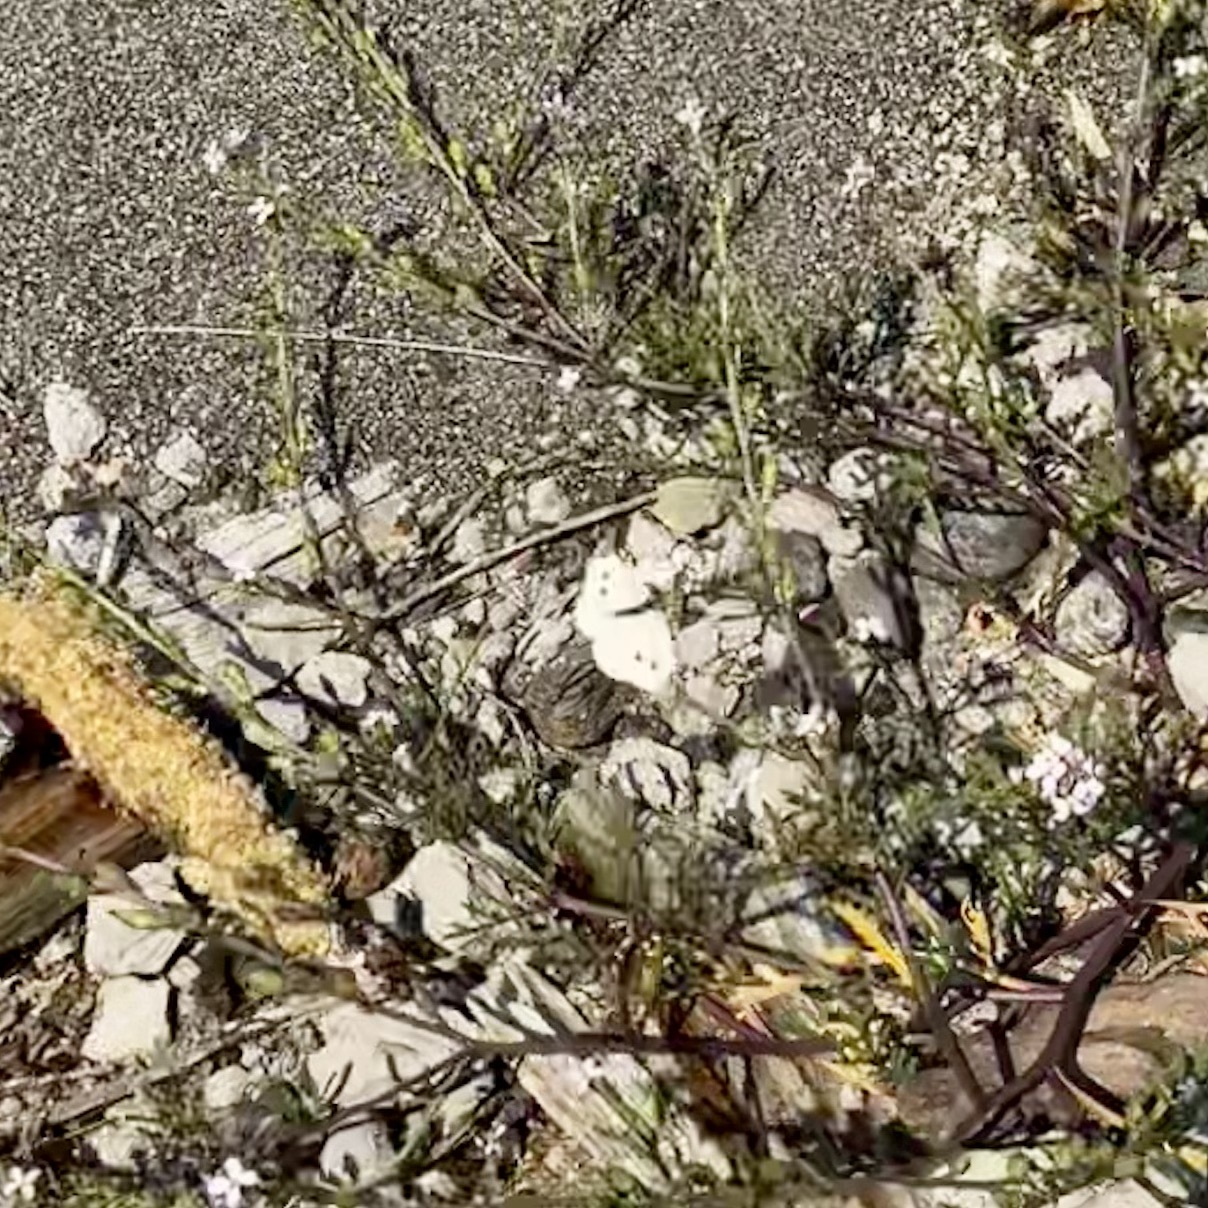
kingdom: Animalia
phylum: Arthropoda
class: Insecta
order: Lepidoptera
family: Pieridae
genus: Pieris
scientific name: Pieris rapae
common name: Small white
